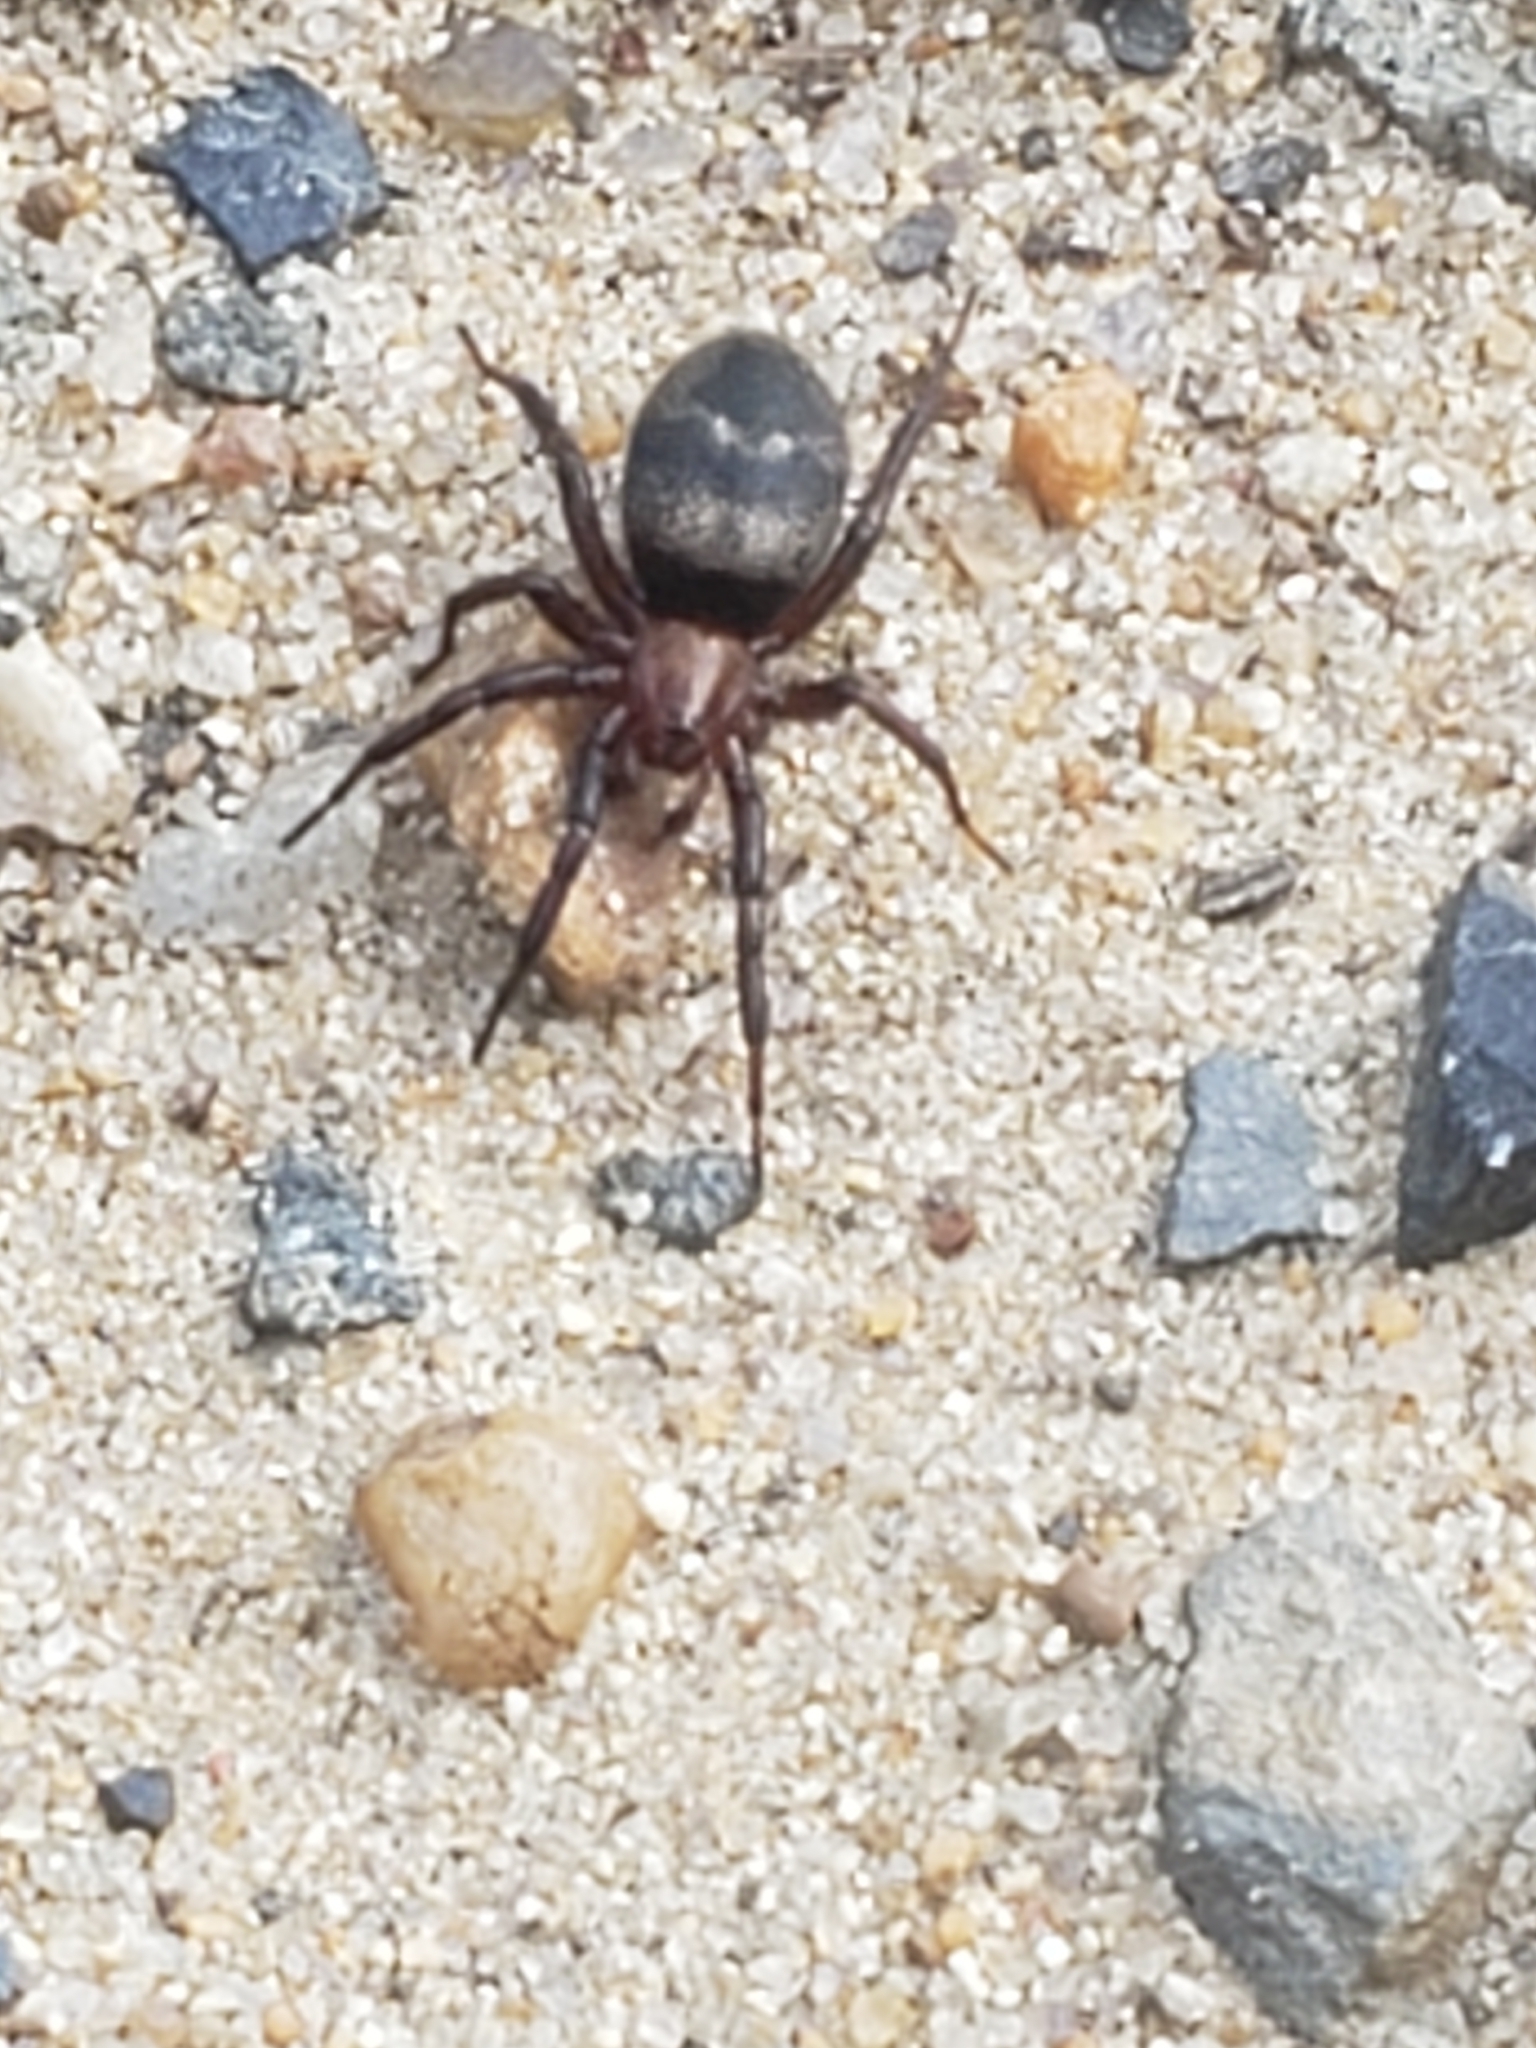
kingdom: Animalia
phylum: Arthropoda
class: Arachnida
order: Araneae
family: Gnaphosidae
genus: Callilepis
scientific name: Callilepis
